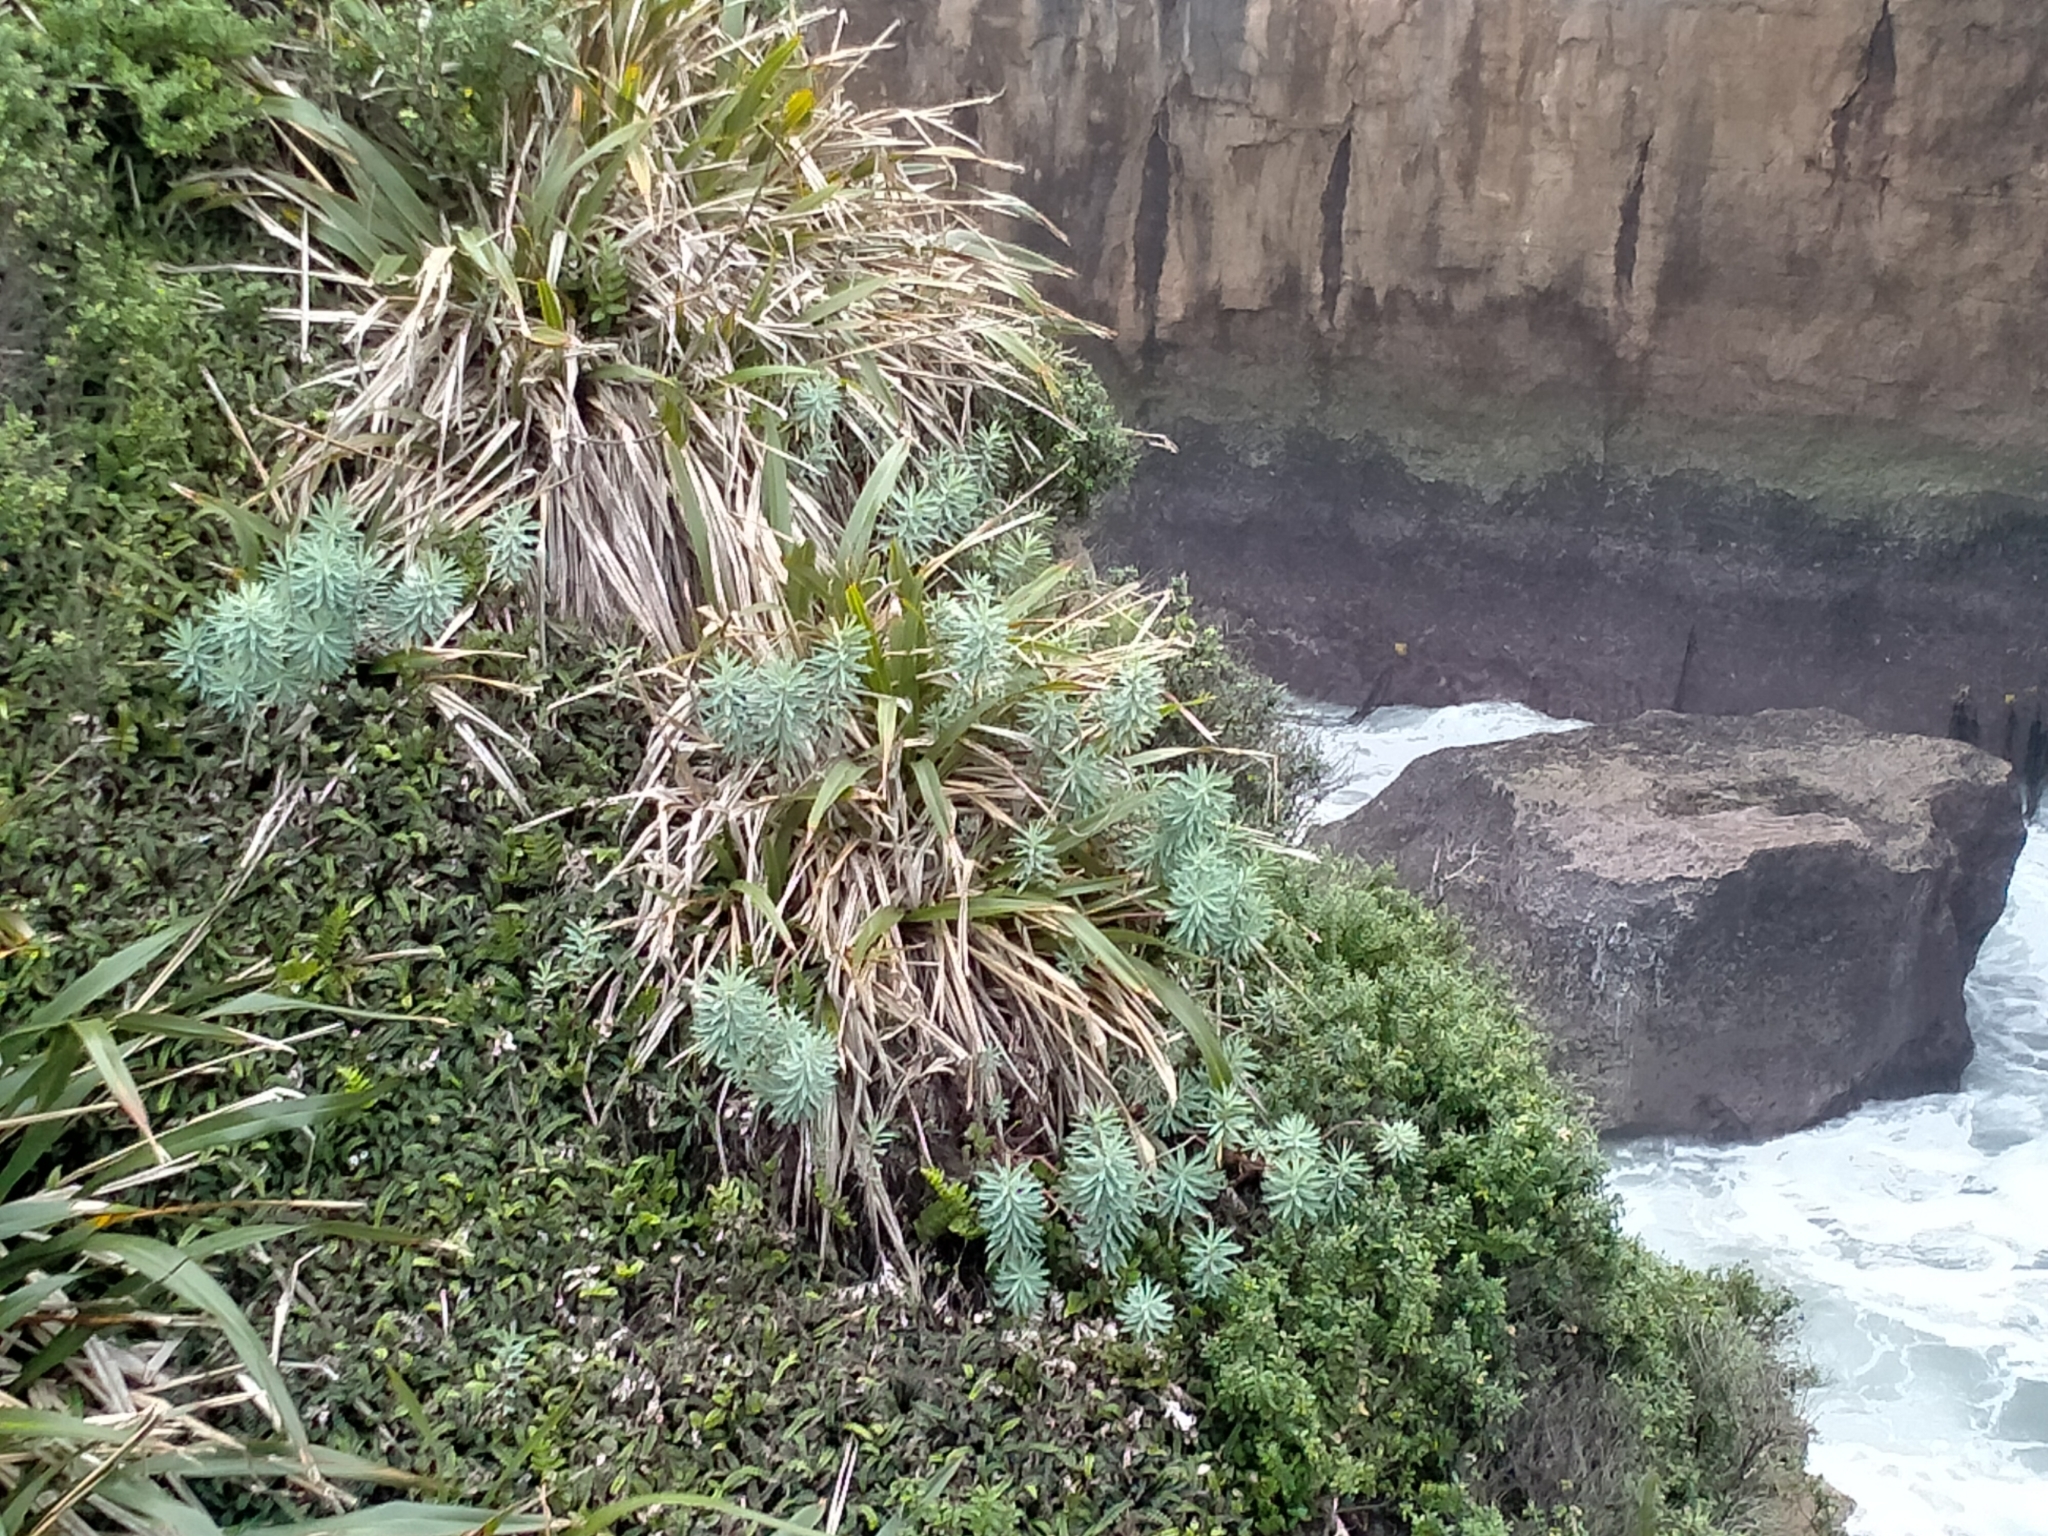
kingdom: Plantae
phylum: Tracheophyta
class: Magnoliopsida
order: Malpighiales
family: Euphorbiaceae
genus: Euphorbia
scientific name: Euphorbia glauca
